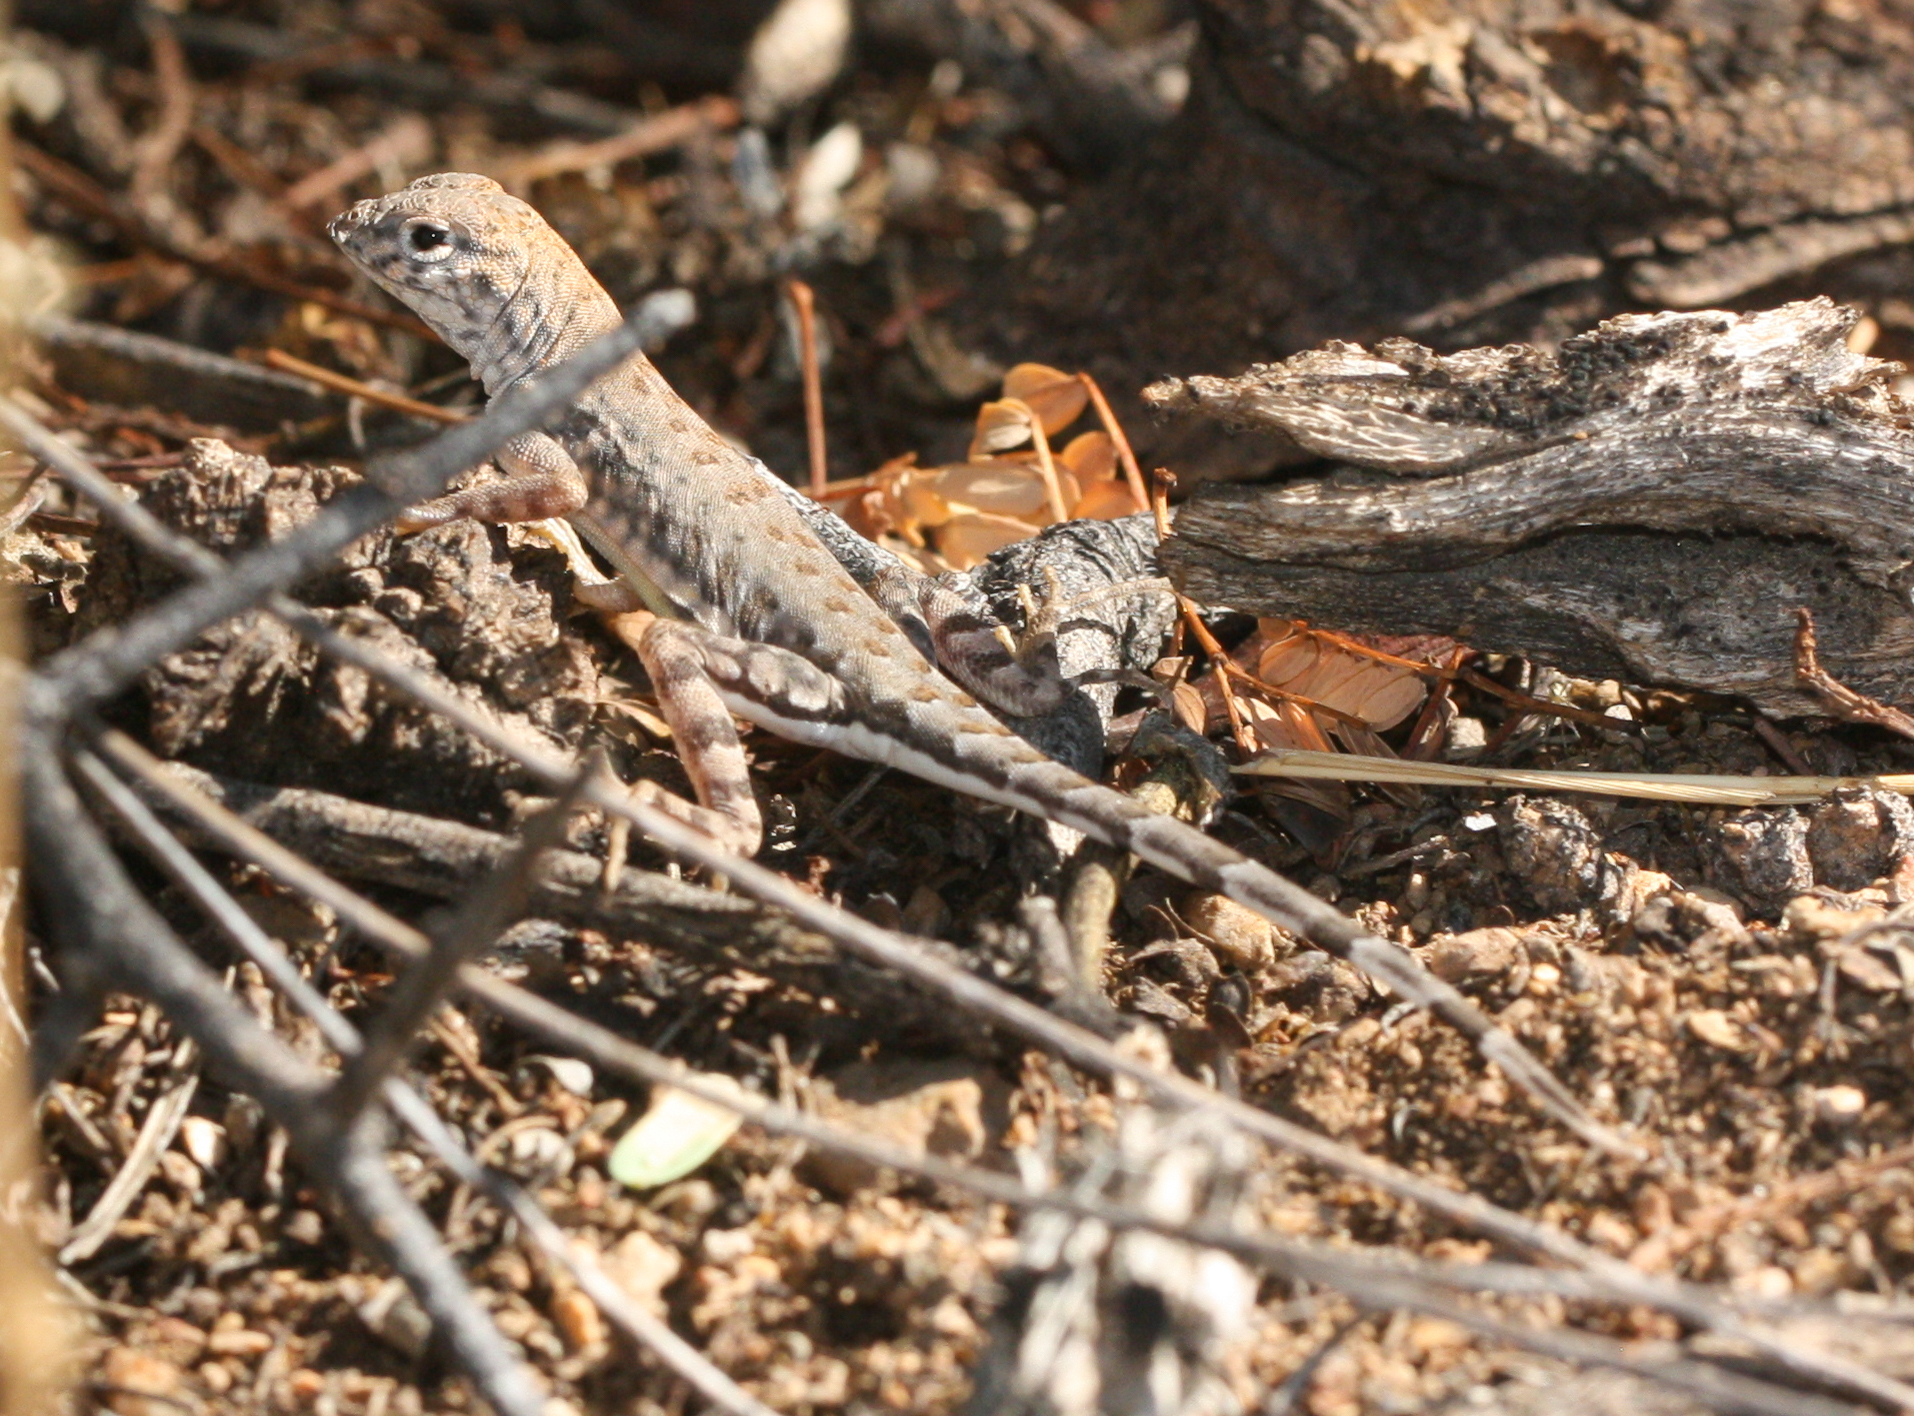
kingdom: Animalia
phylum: Chordata
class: Squamata
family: Phrynosomatidae
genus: Cophosaurus
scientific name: Cophosaurus texanus
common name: Greater earless lizard
